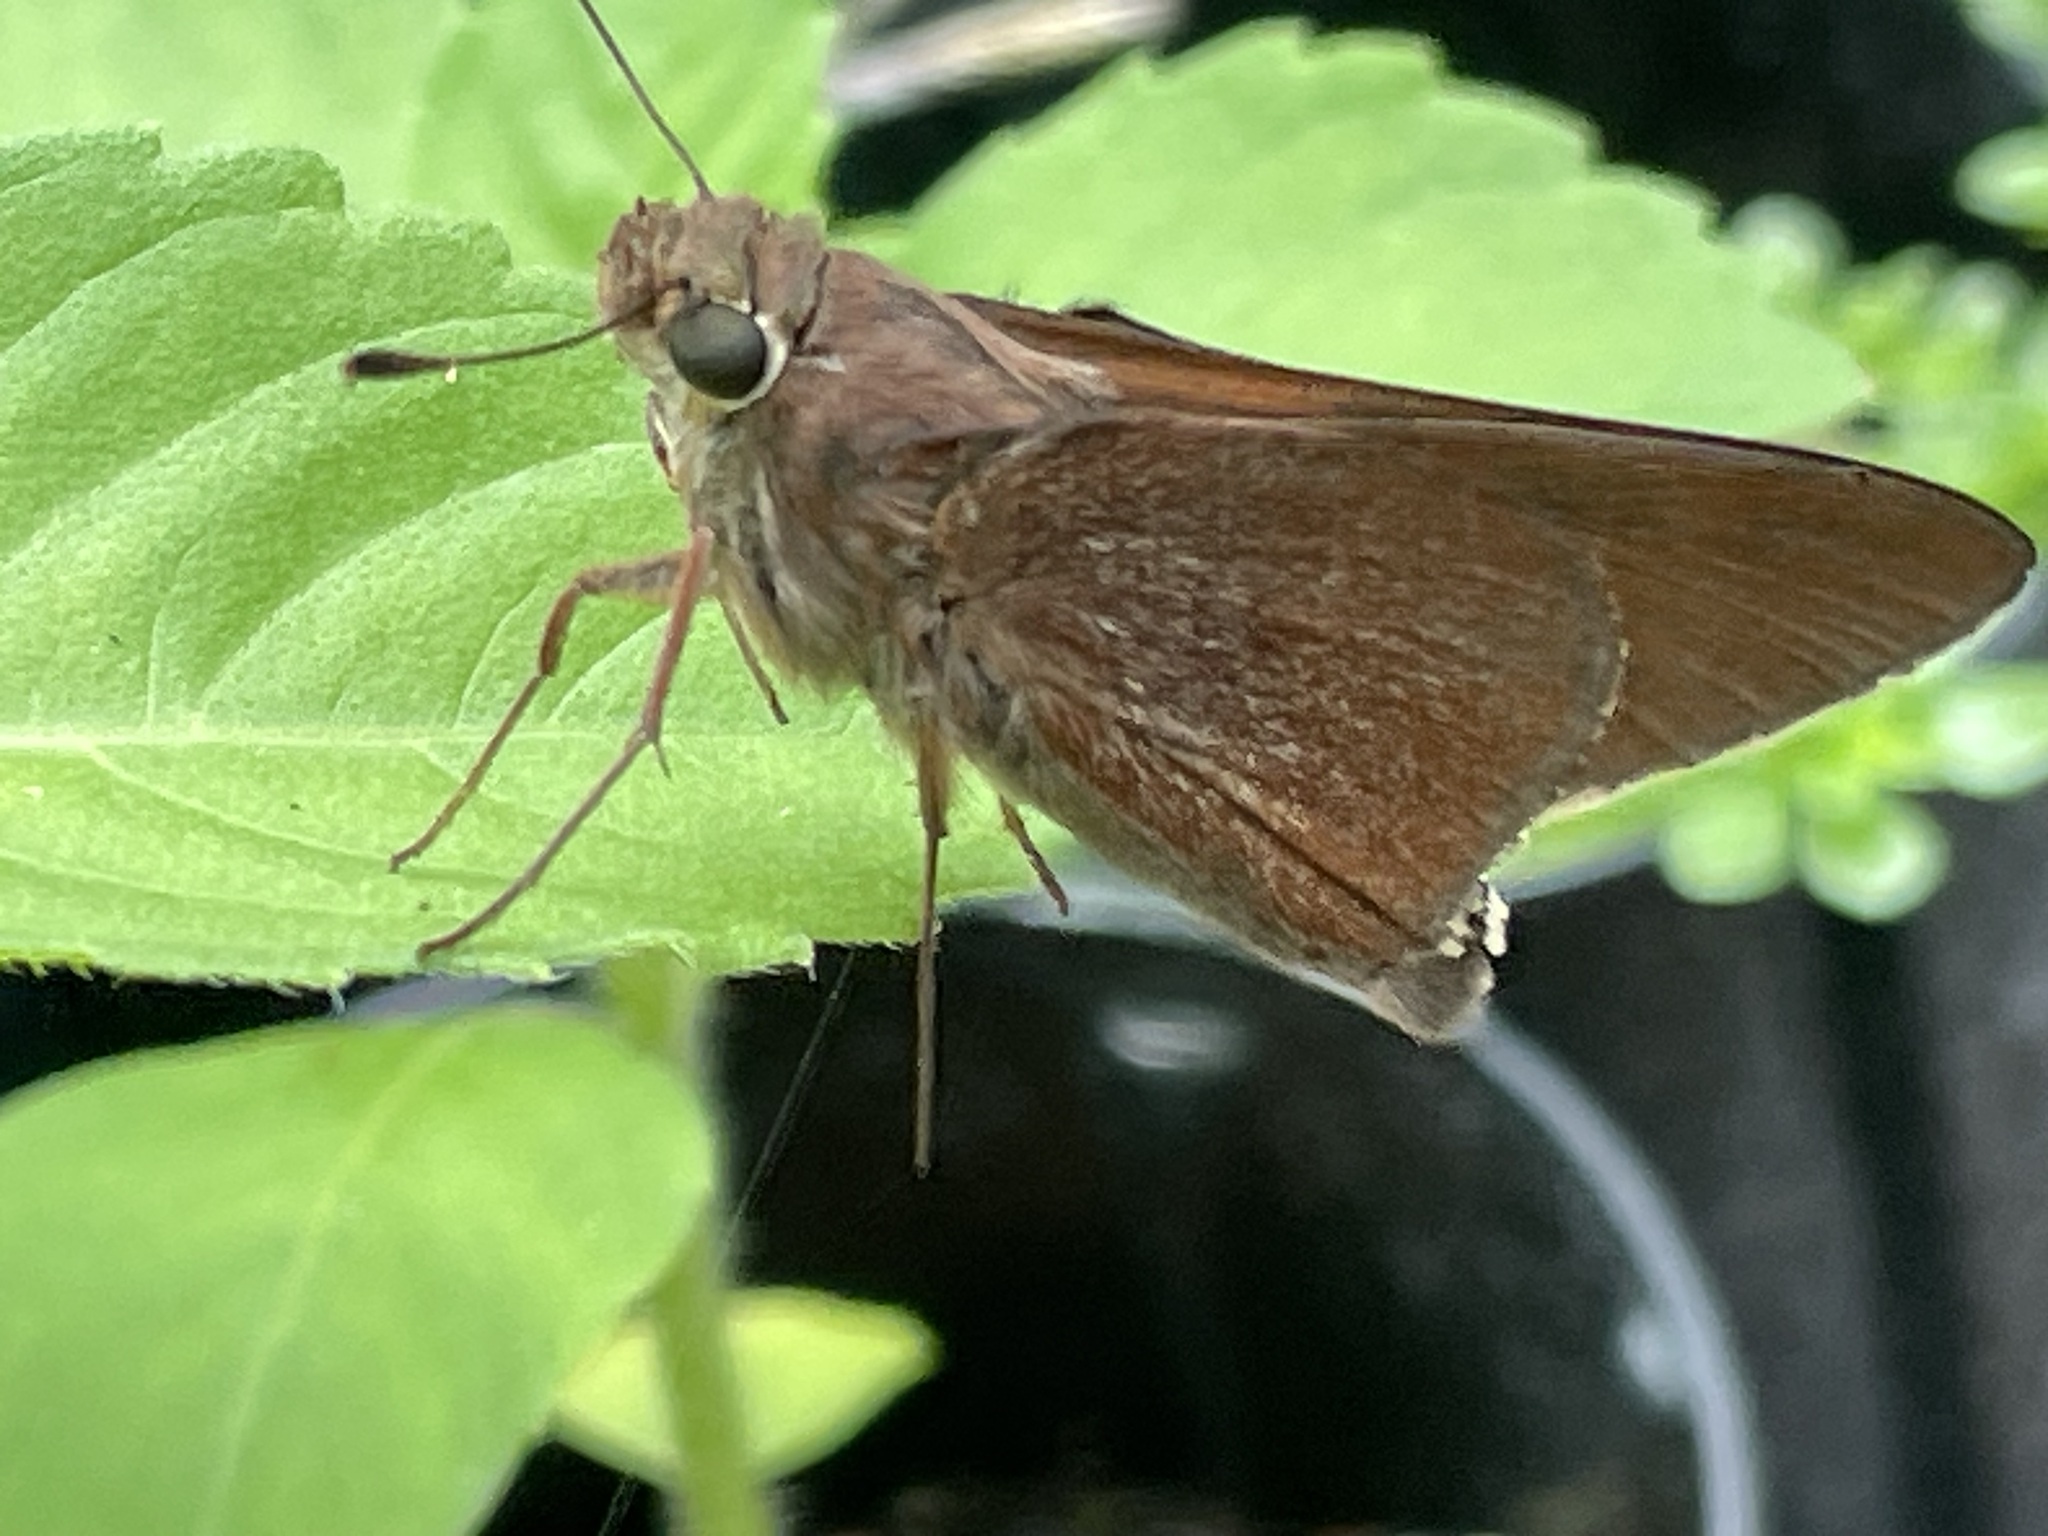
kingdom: Animalia
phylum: Arthropoda
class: Insecta
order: Lepidoptera
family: Hesperiidae
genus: Asbolis
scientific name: Asbolis capucinus
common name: Monk skipper
